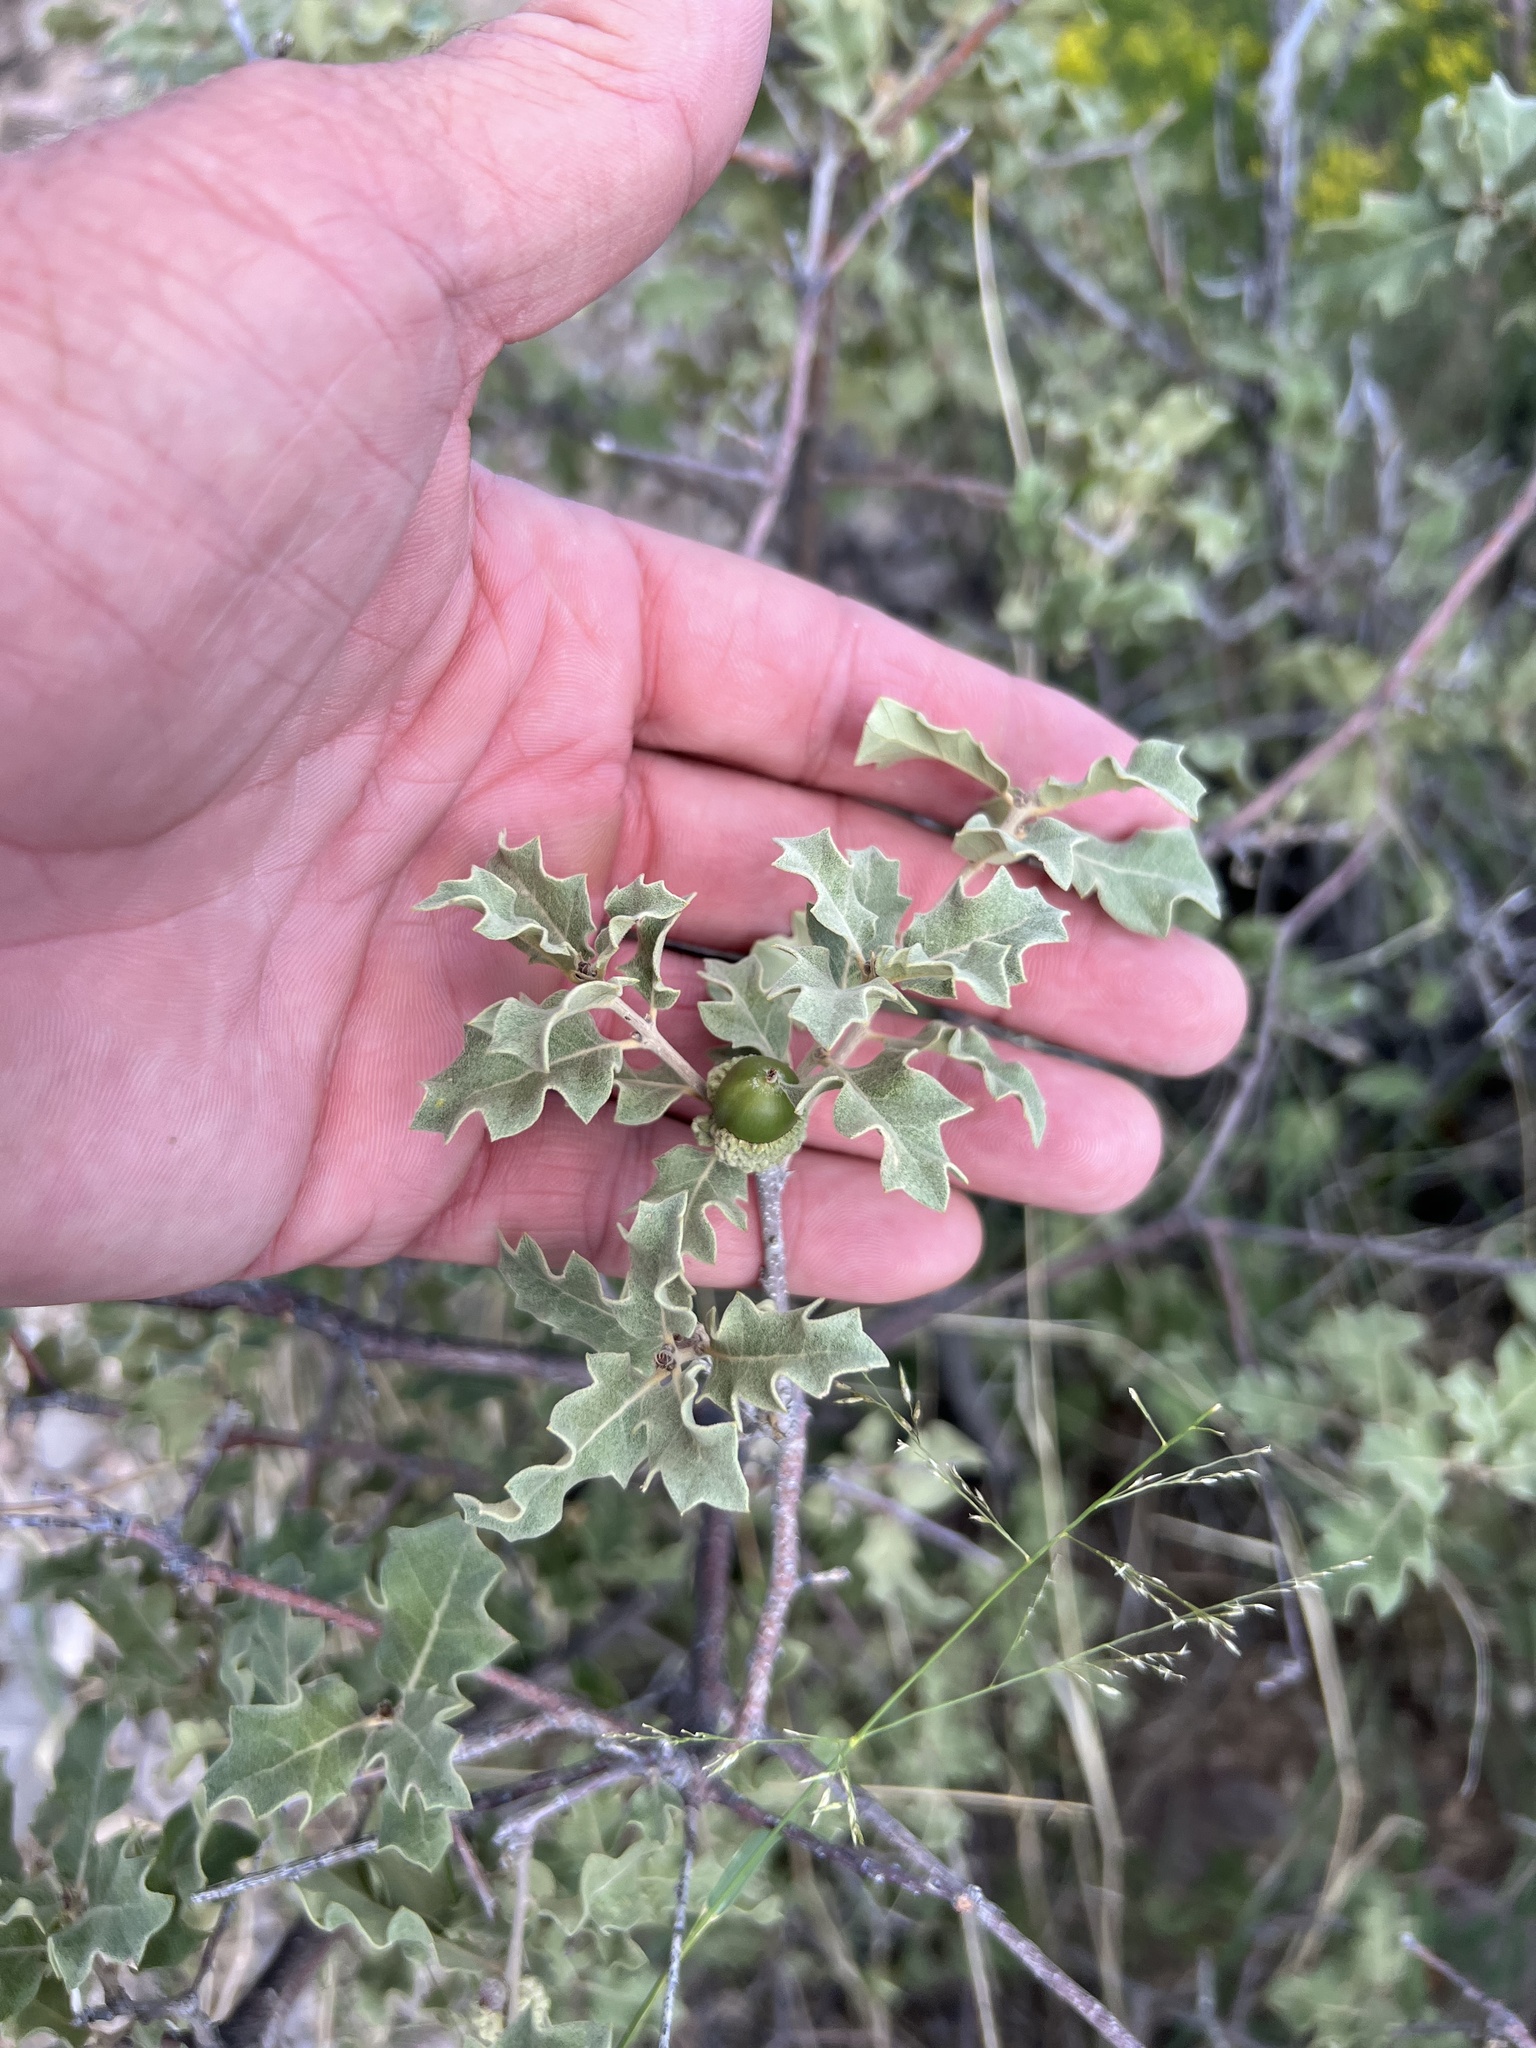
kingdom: Plantae
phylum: Tracheophyta
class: Magnoliopsida
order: Fagales
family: Fagaceae
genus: Quercus
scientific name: Quercus pungens
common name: Pungent oak
